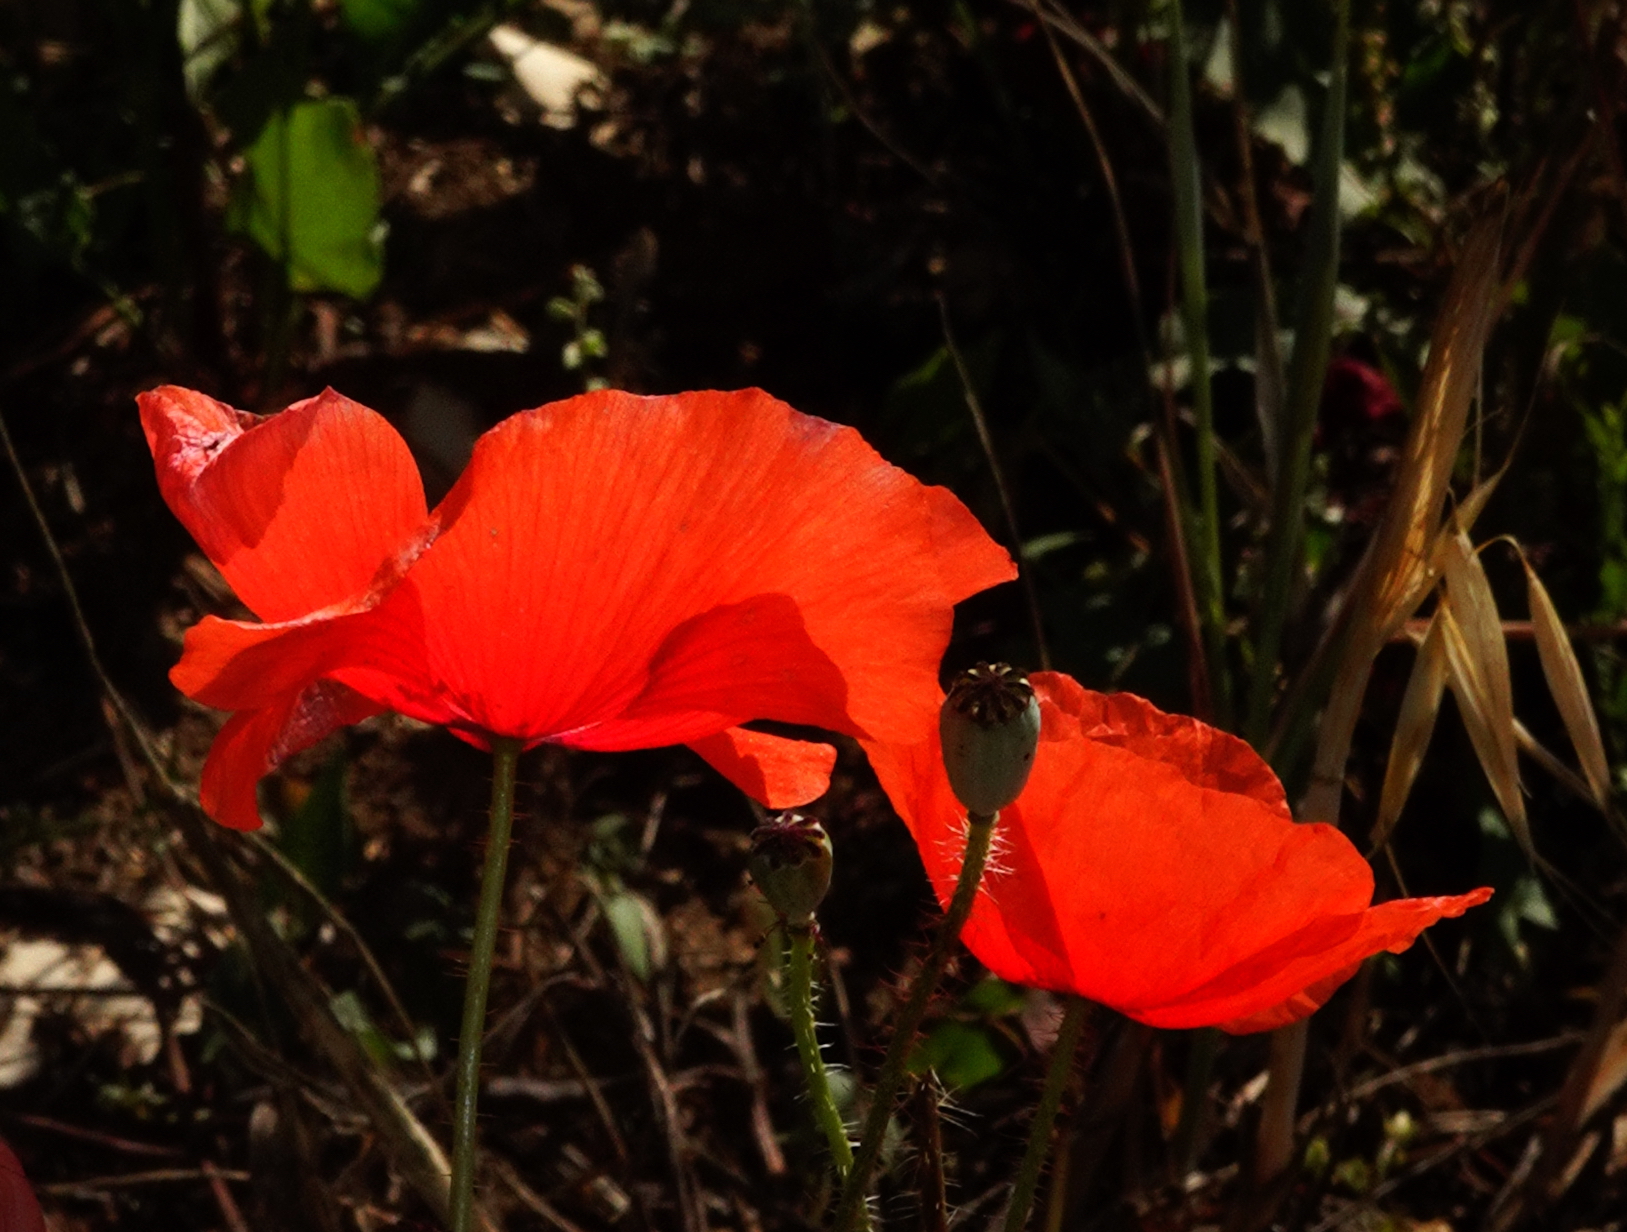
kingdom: Plantae
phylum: Tracheophyta
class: Magnoliopsida
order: Ranunculales
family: Papaveraceae
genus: Papaver
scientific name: Papaver rhoeas
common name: Corn poppy
